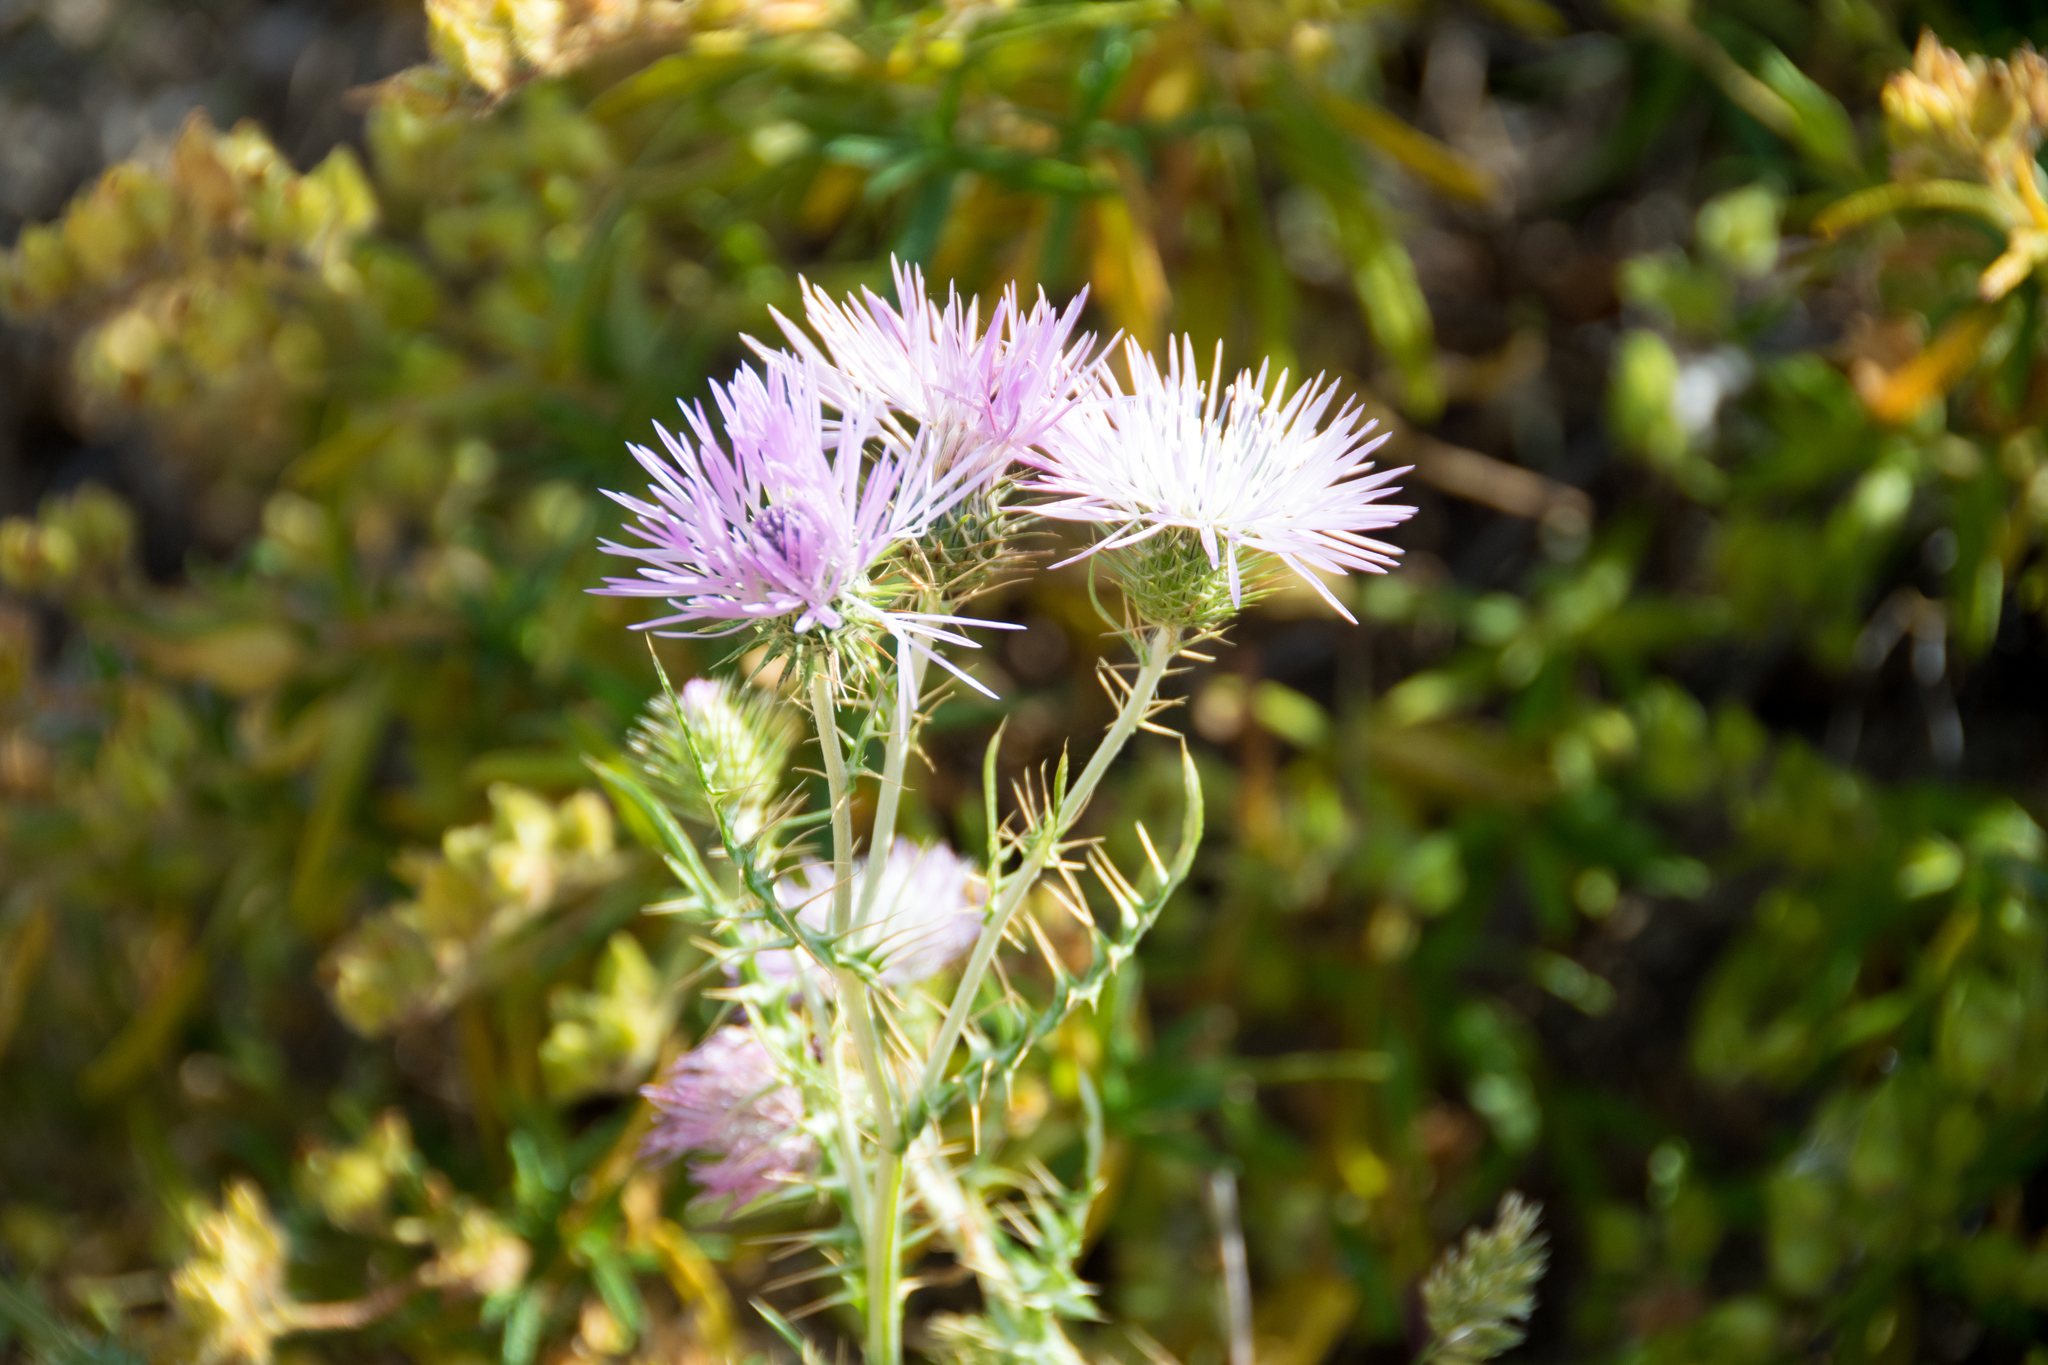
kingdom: Plantae
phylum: Tracheophyta
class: Magnoliopsida
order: Asterales
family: Asteraceae
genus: Galactites
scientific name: Galactites tomentosa
